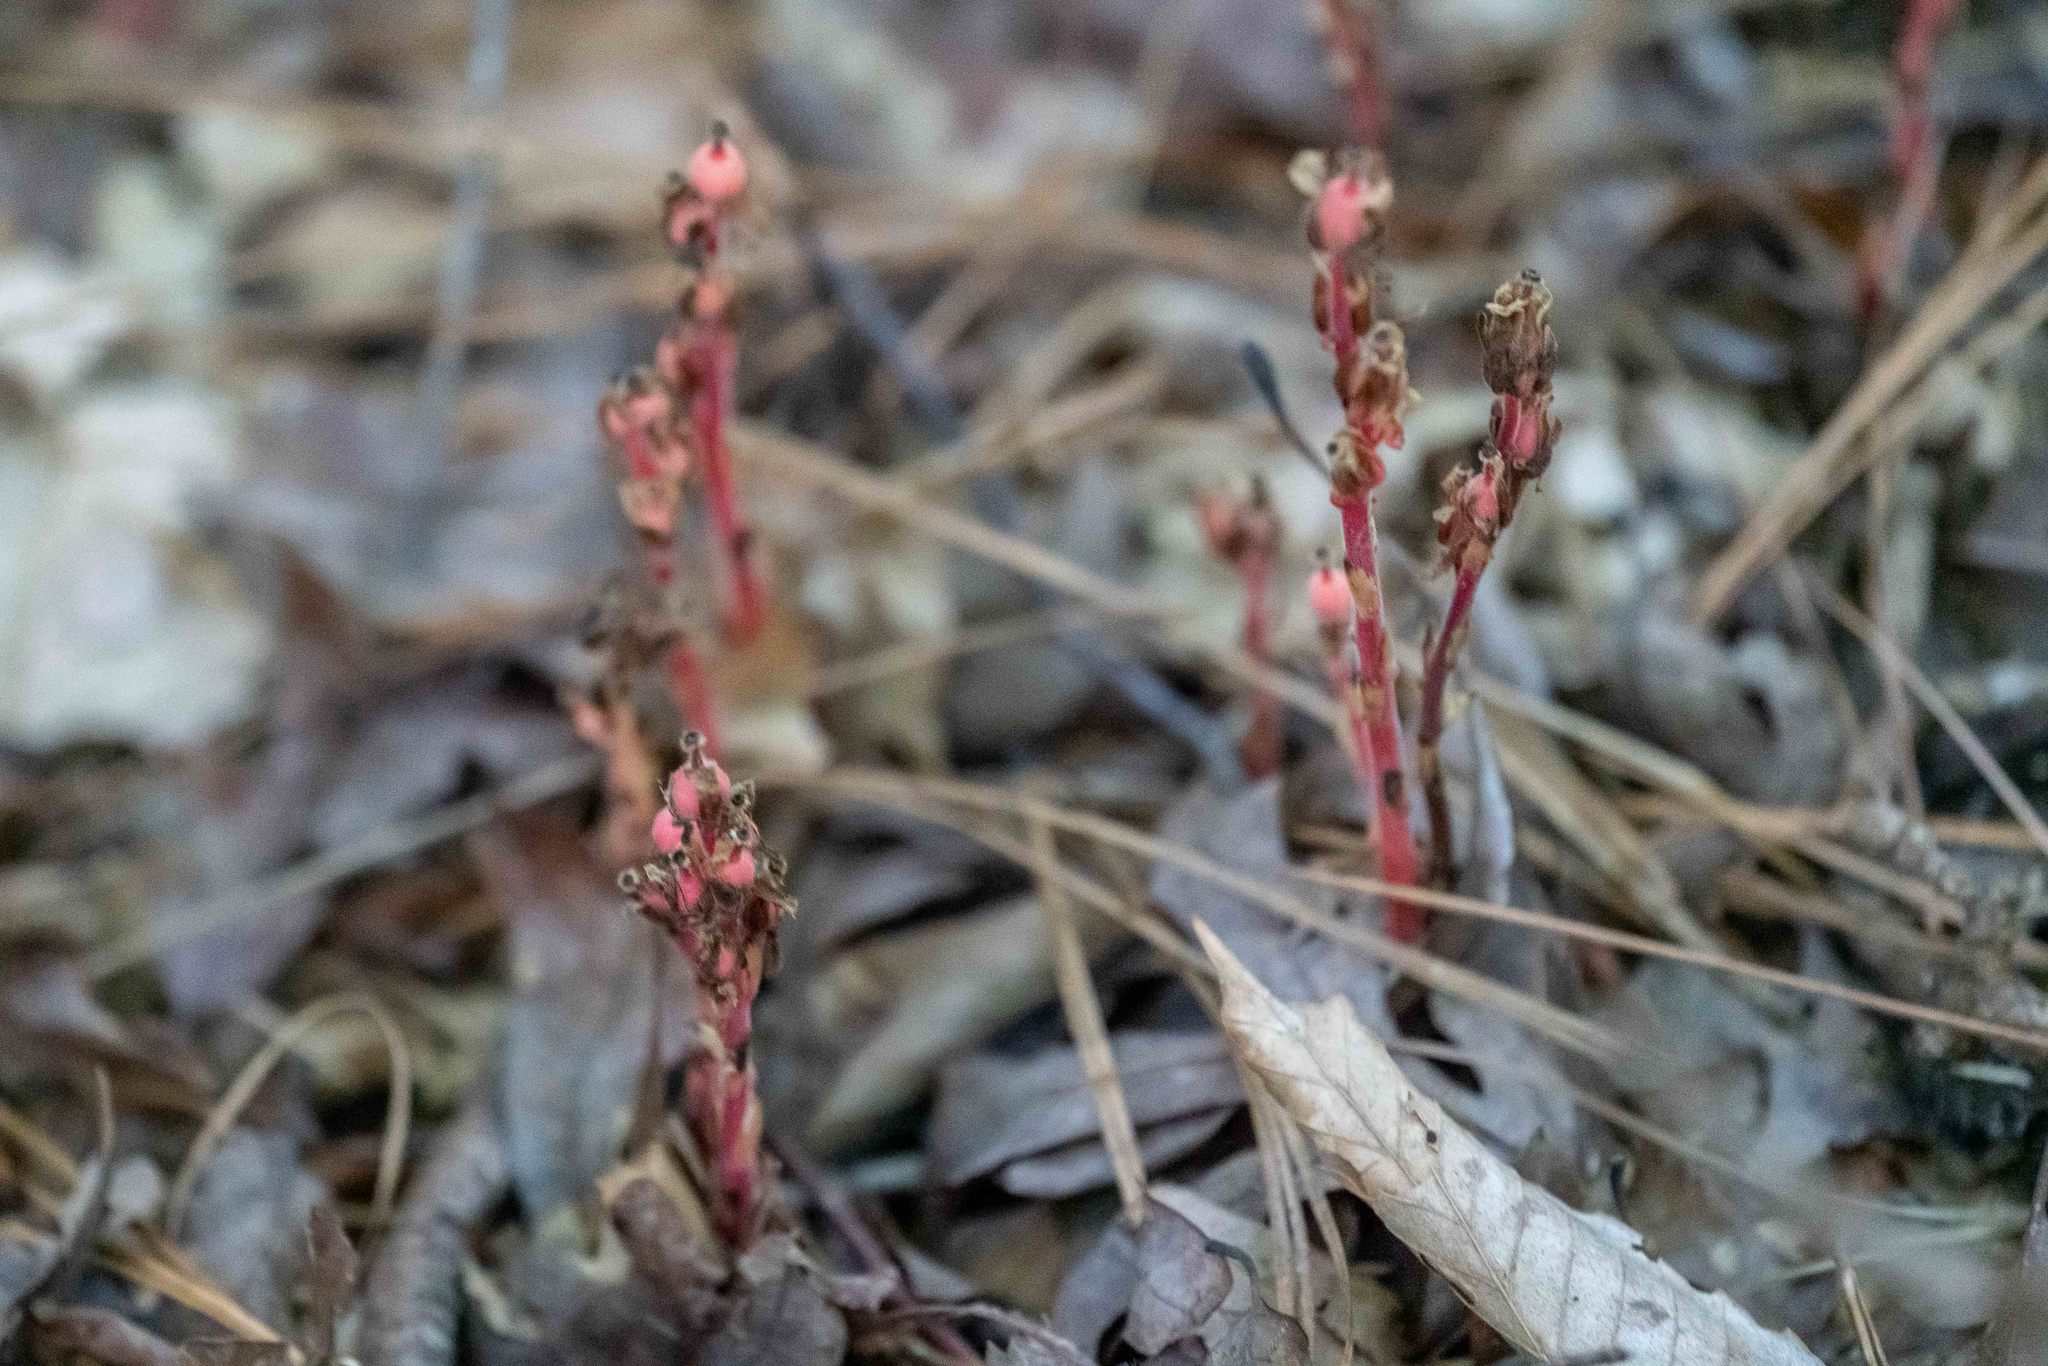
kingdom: Plantae
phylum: Tracheophyta
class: Magnoliopsida
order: Ericales
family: Ericaceae
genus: Hypopitys
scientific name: Hypopitys monotropa
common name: Yellow bird's-nest
